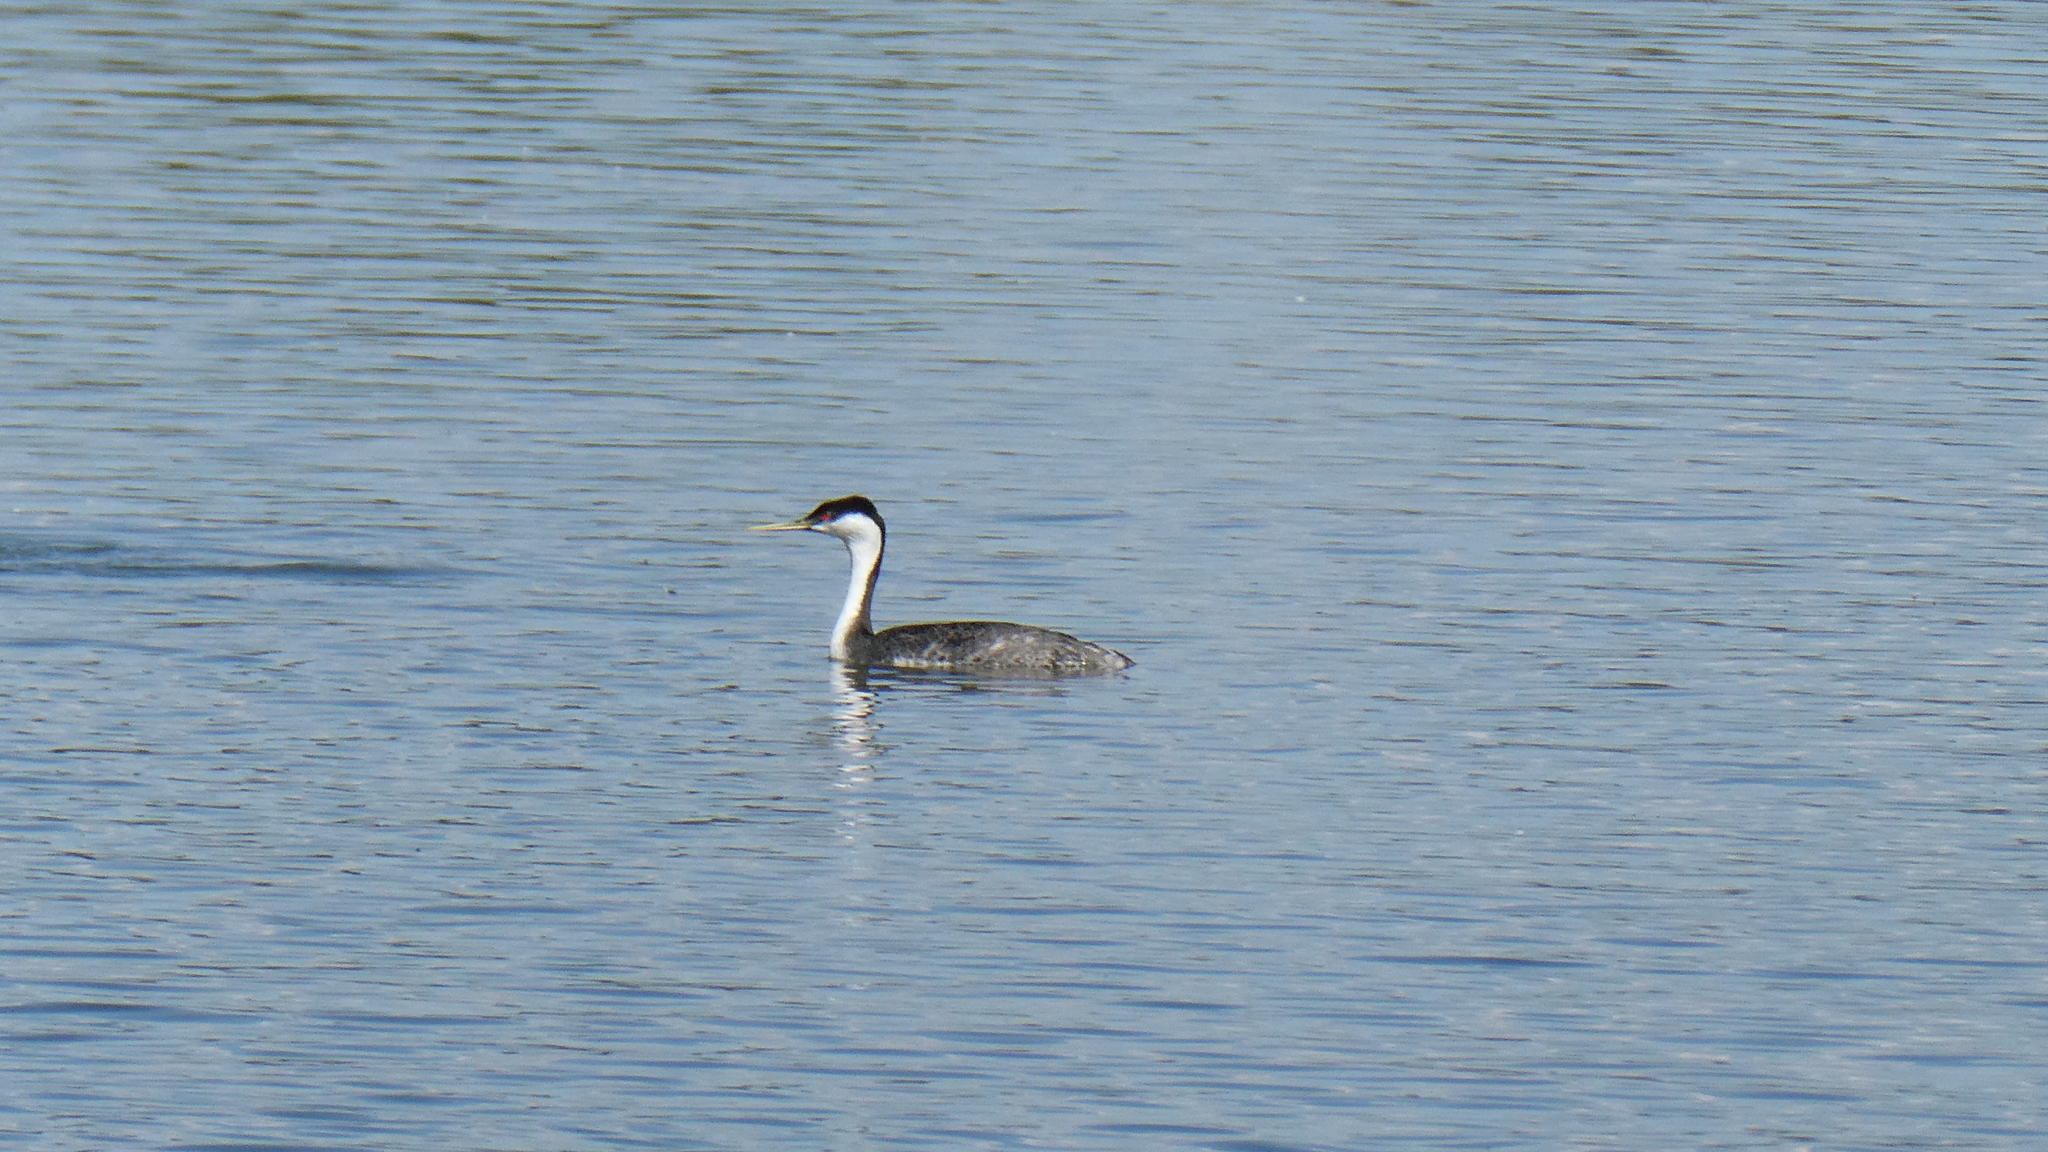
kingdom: Animalia
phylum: Chordata
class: Aves
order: Podicipediformes
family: Podicipedidae
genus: Aechmophorus
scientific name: Aechmophorus occidentalis
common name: Western grebe
